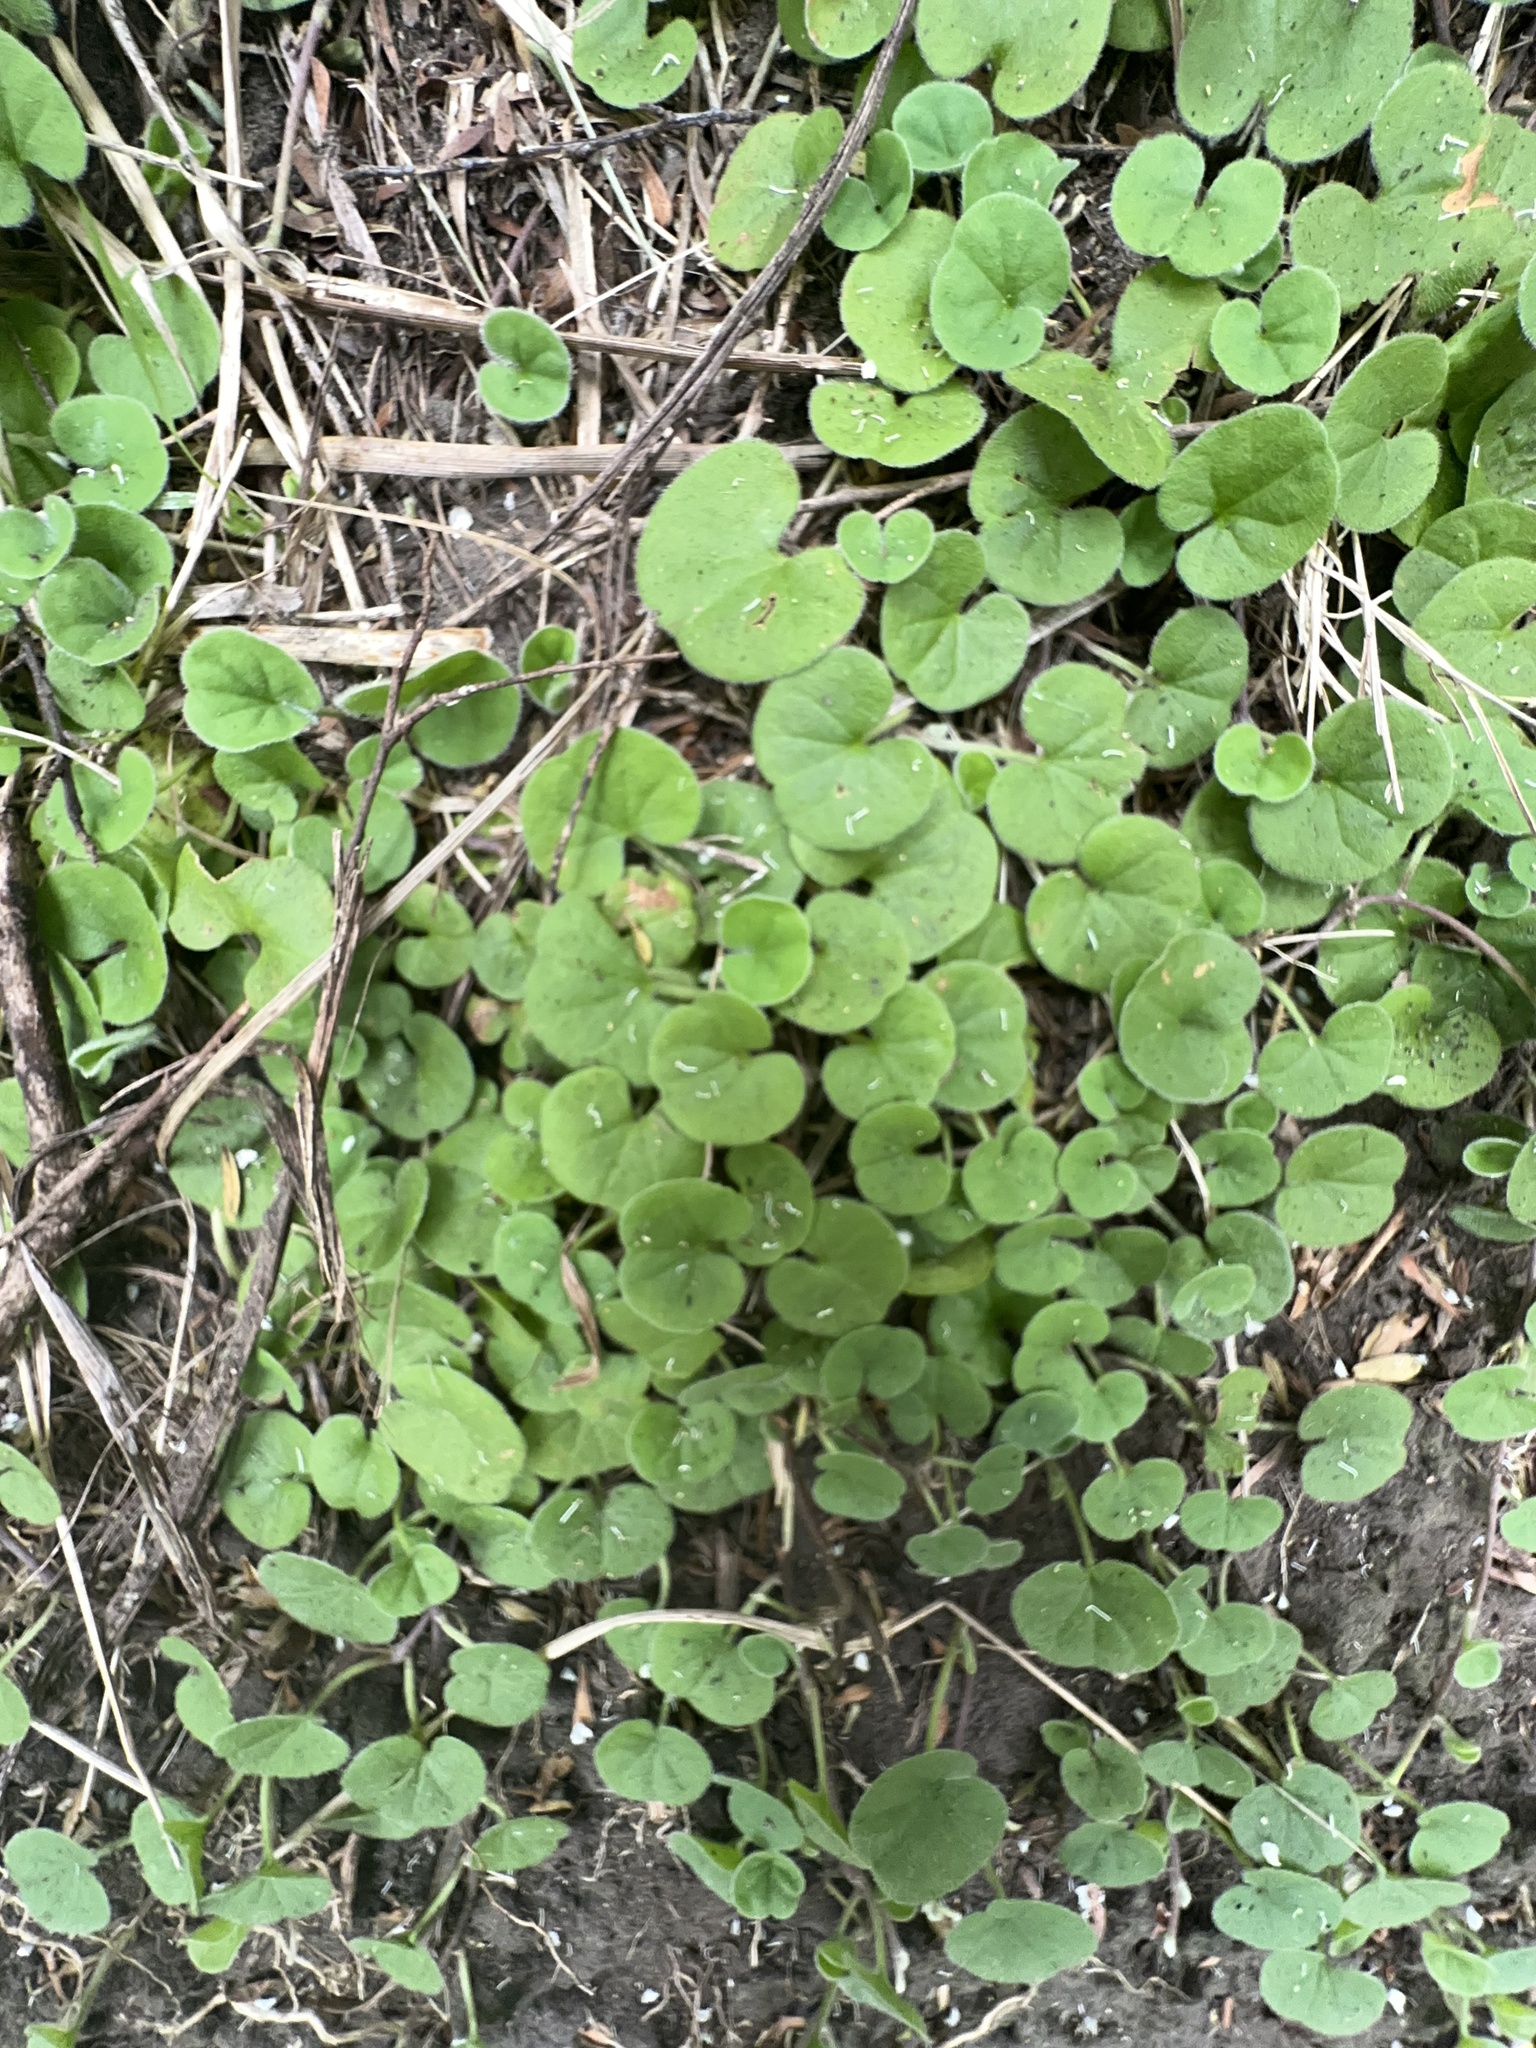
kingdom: Plantae
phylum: Tracheophyta
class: Magnoliopsida
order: Solanales
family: Convolvulaceae
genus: Dichondra
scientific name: Dichondra repens
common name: Kidneyweed
